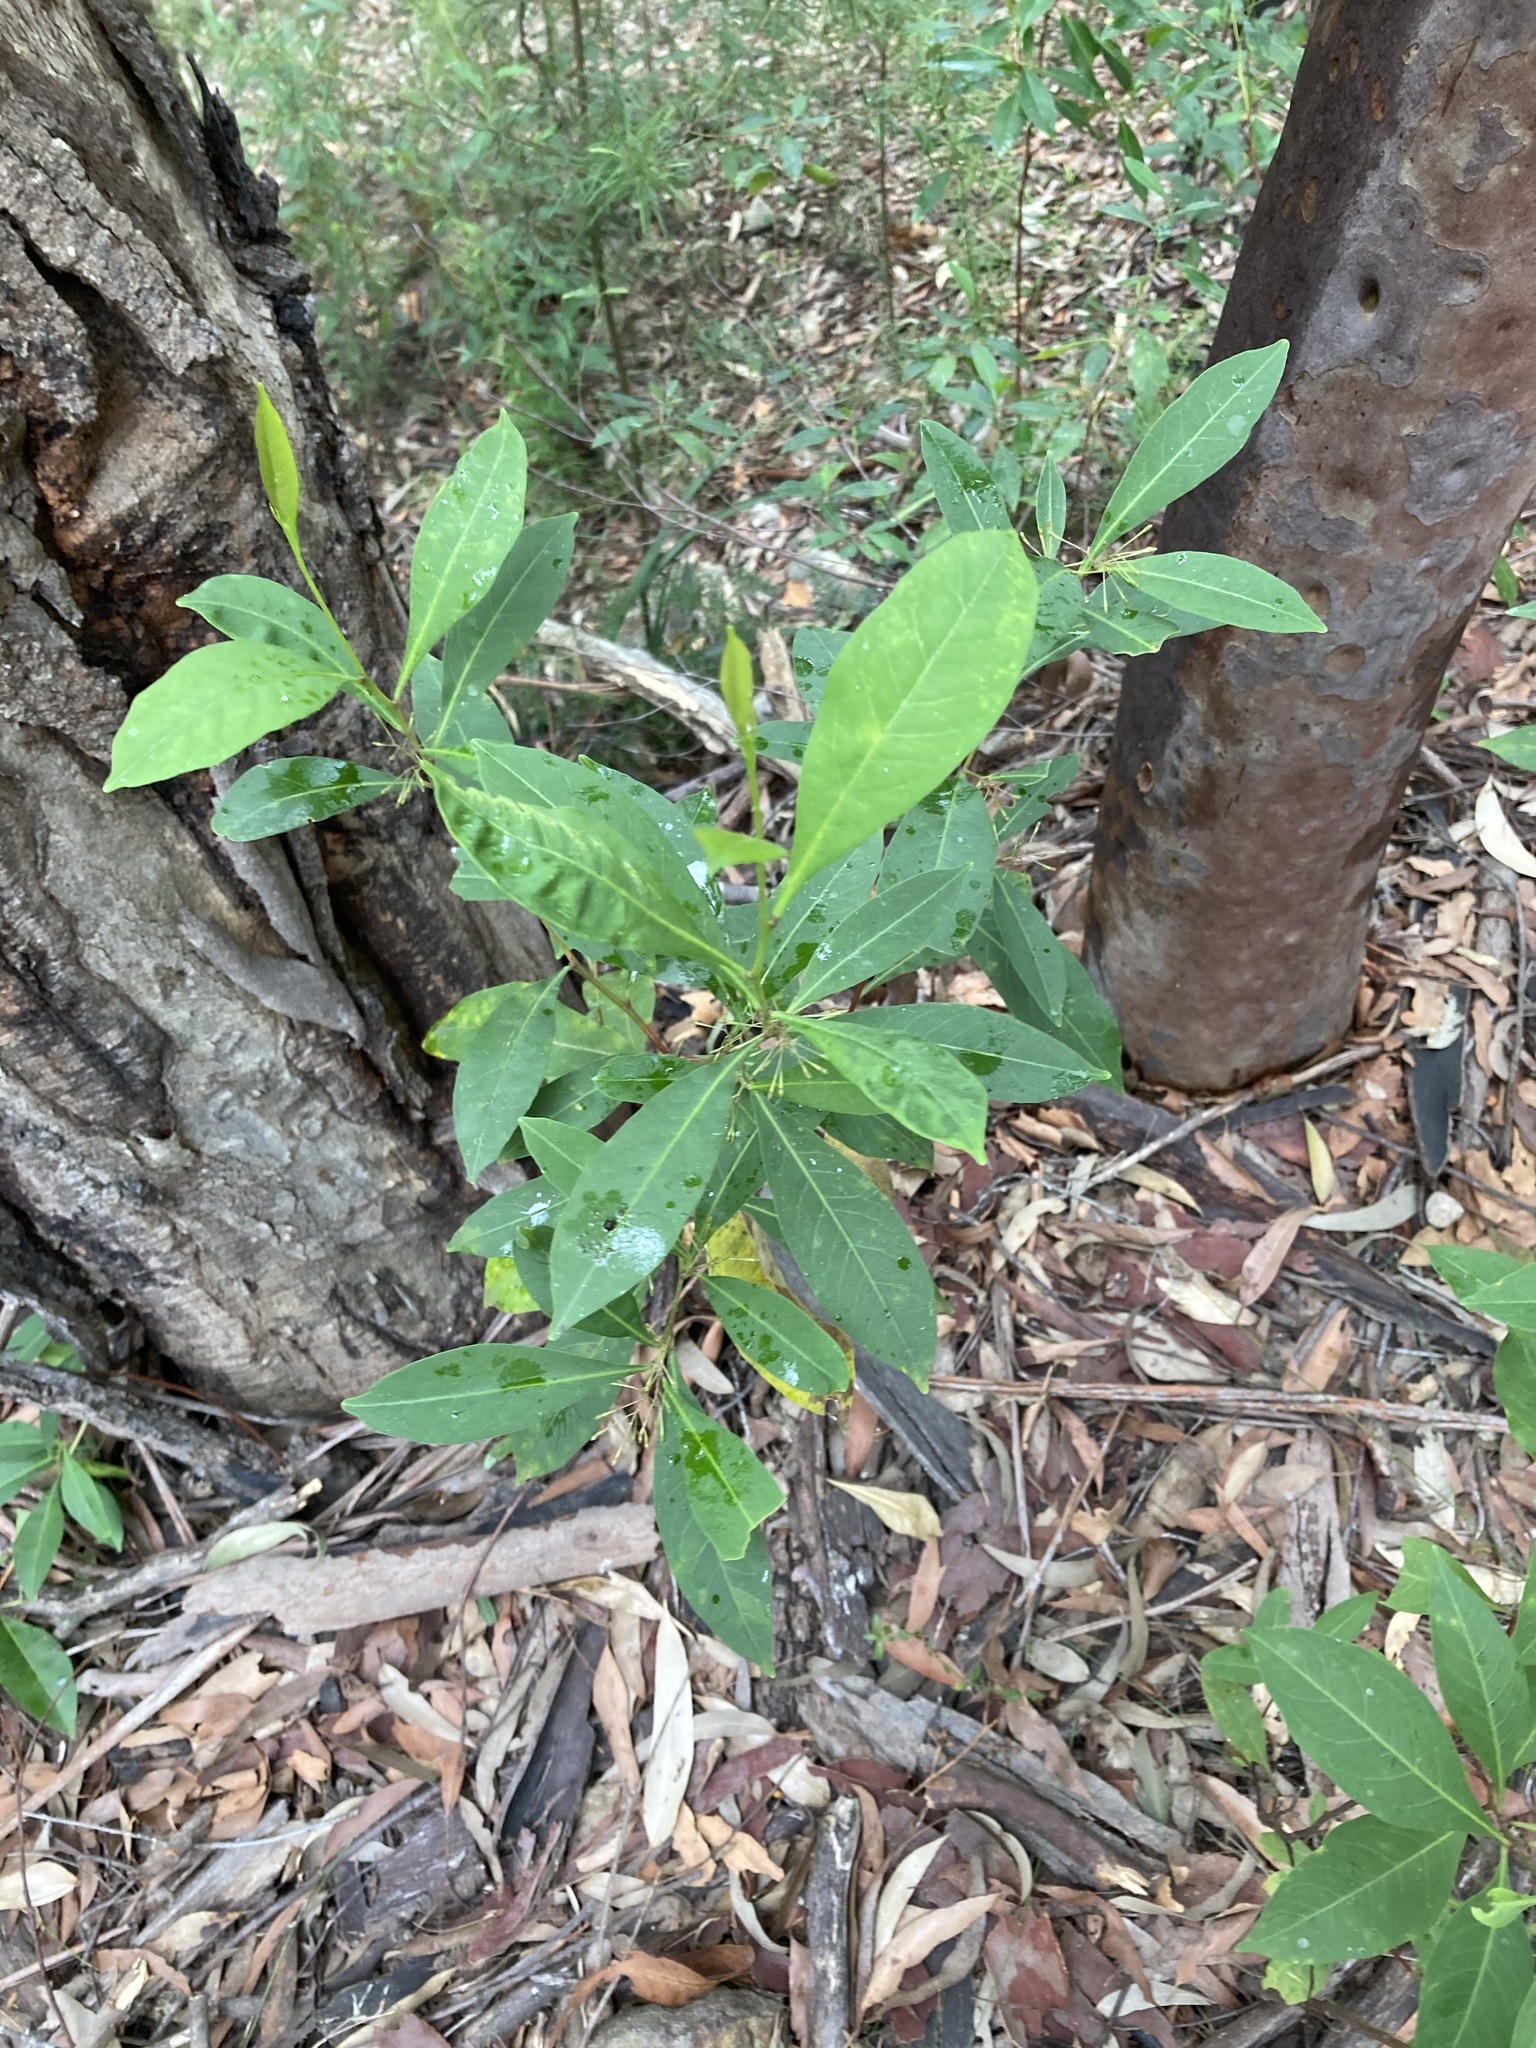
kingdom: Plantae
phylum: Tracheophyta
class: Magnoliopsida
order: Sapindales
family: Sapindaceae
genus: Dodonaea
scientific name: Dodonaea triquetra
